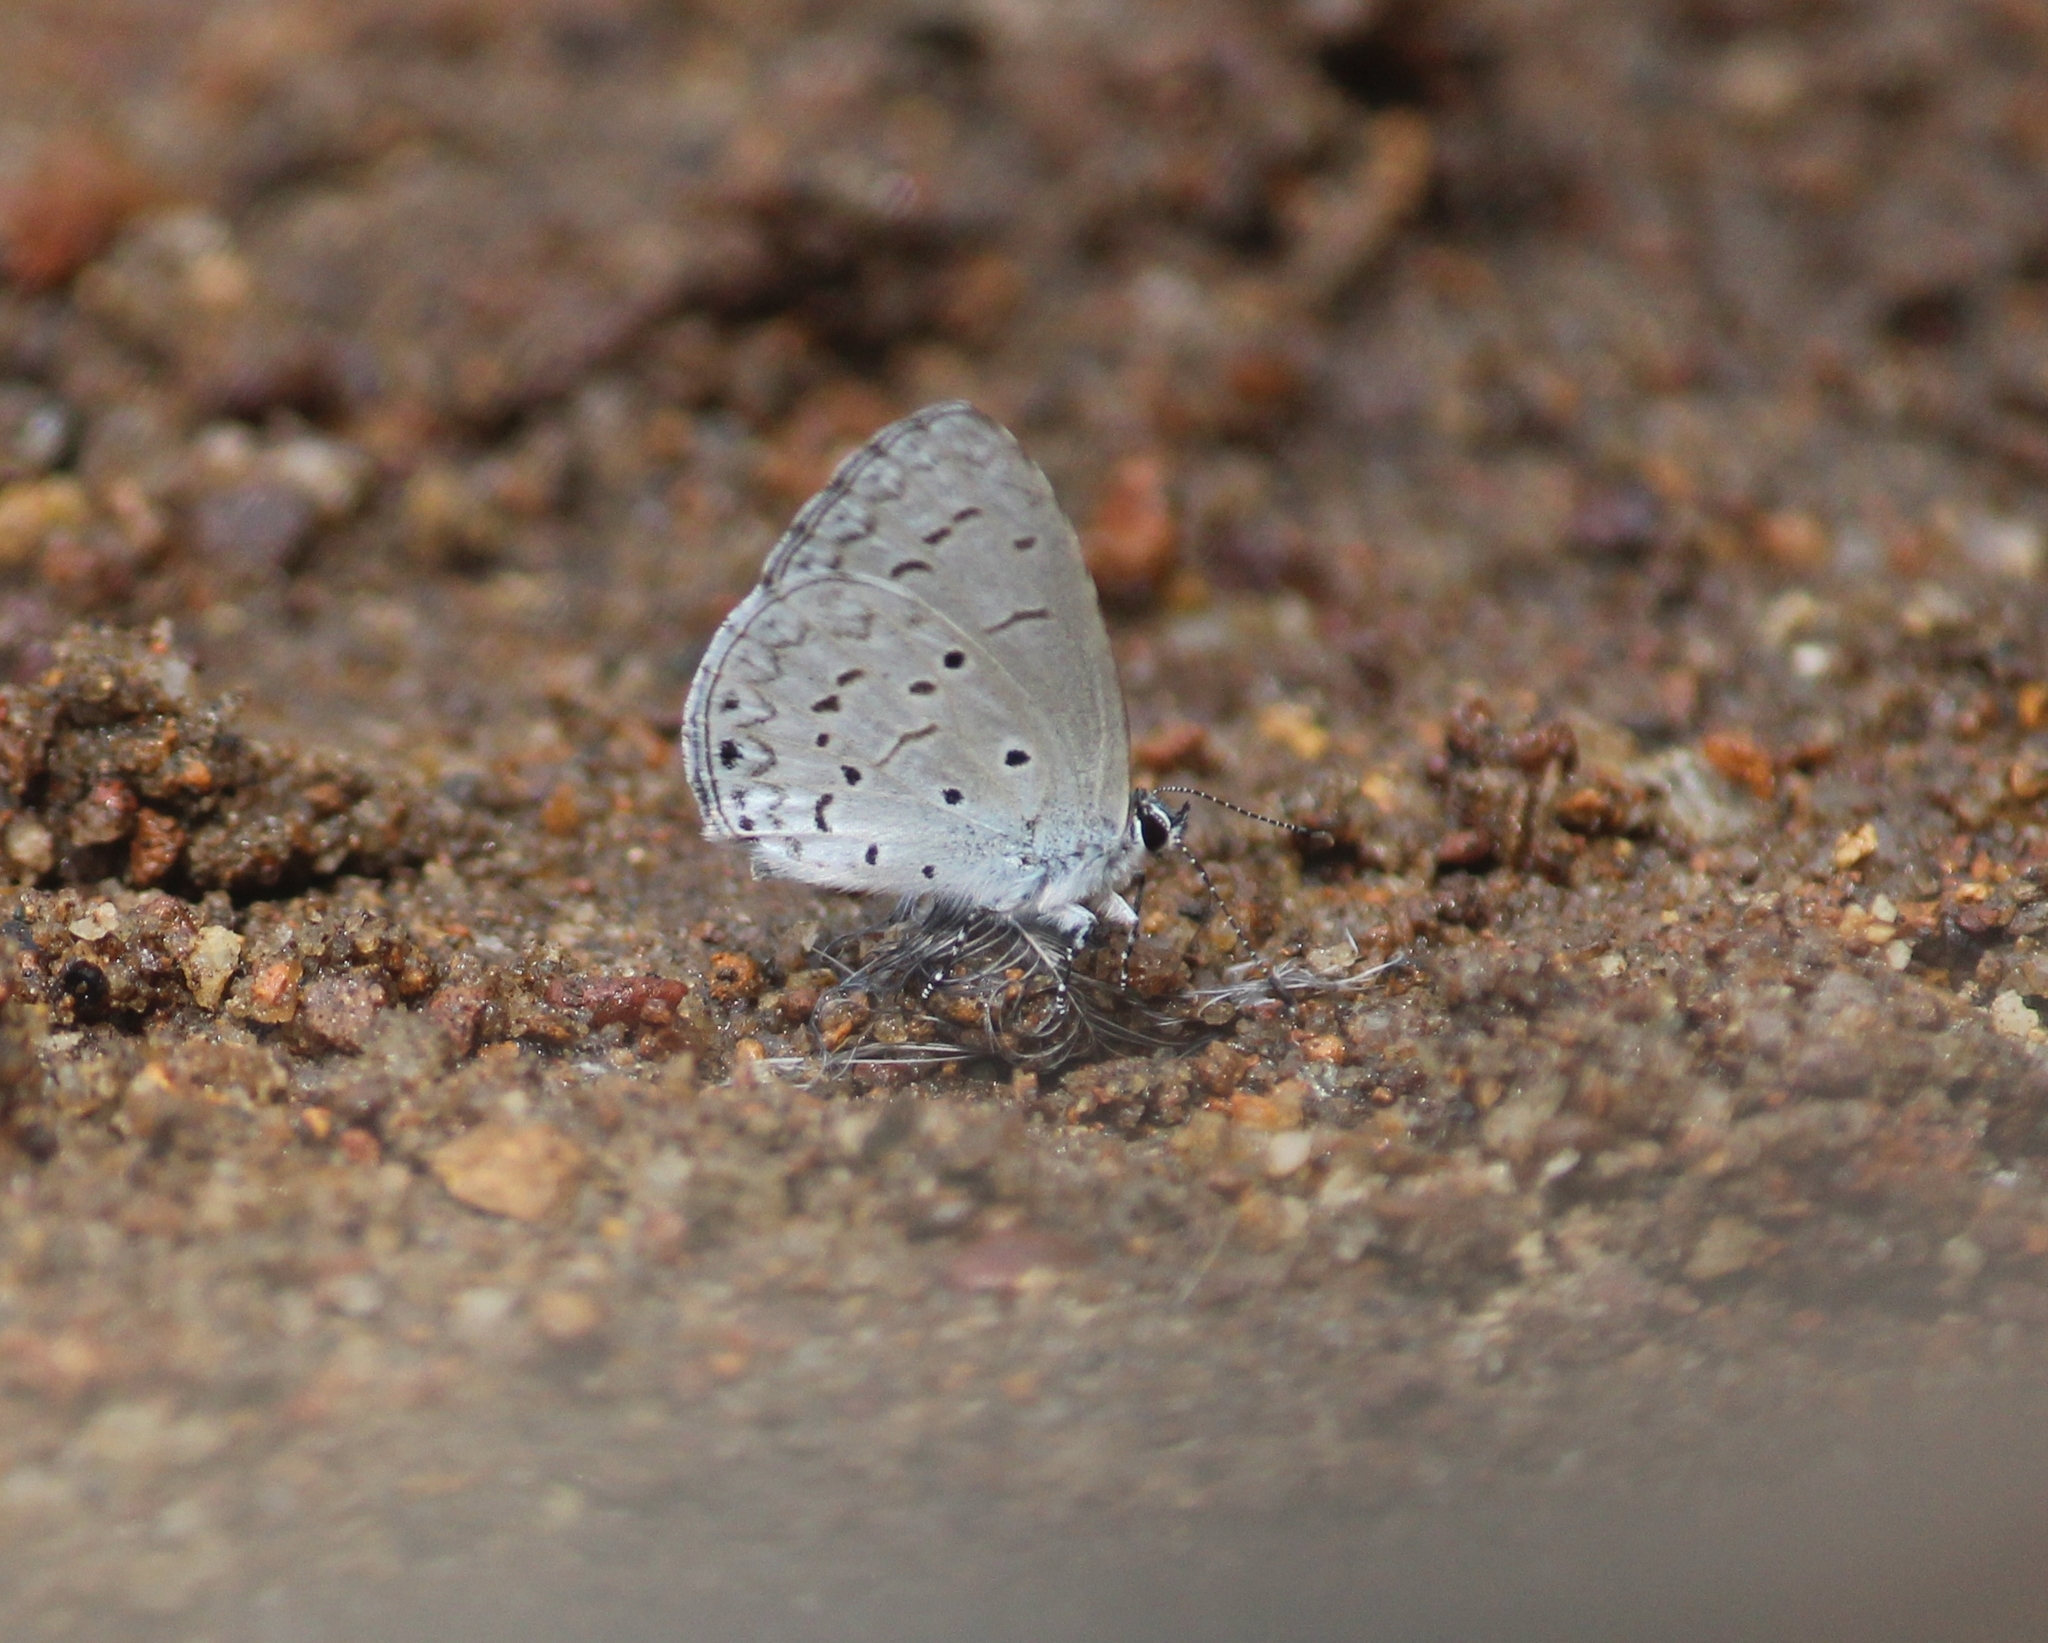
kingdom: Animalia
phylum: Arthropoda
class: Insecta
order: Lepidoptera
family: Lycaenidae
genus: Celastrina
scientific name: Celastrina lavendularis
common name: Plain hedge blue
